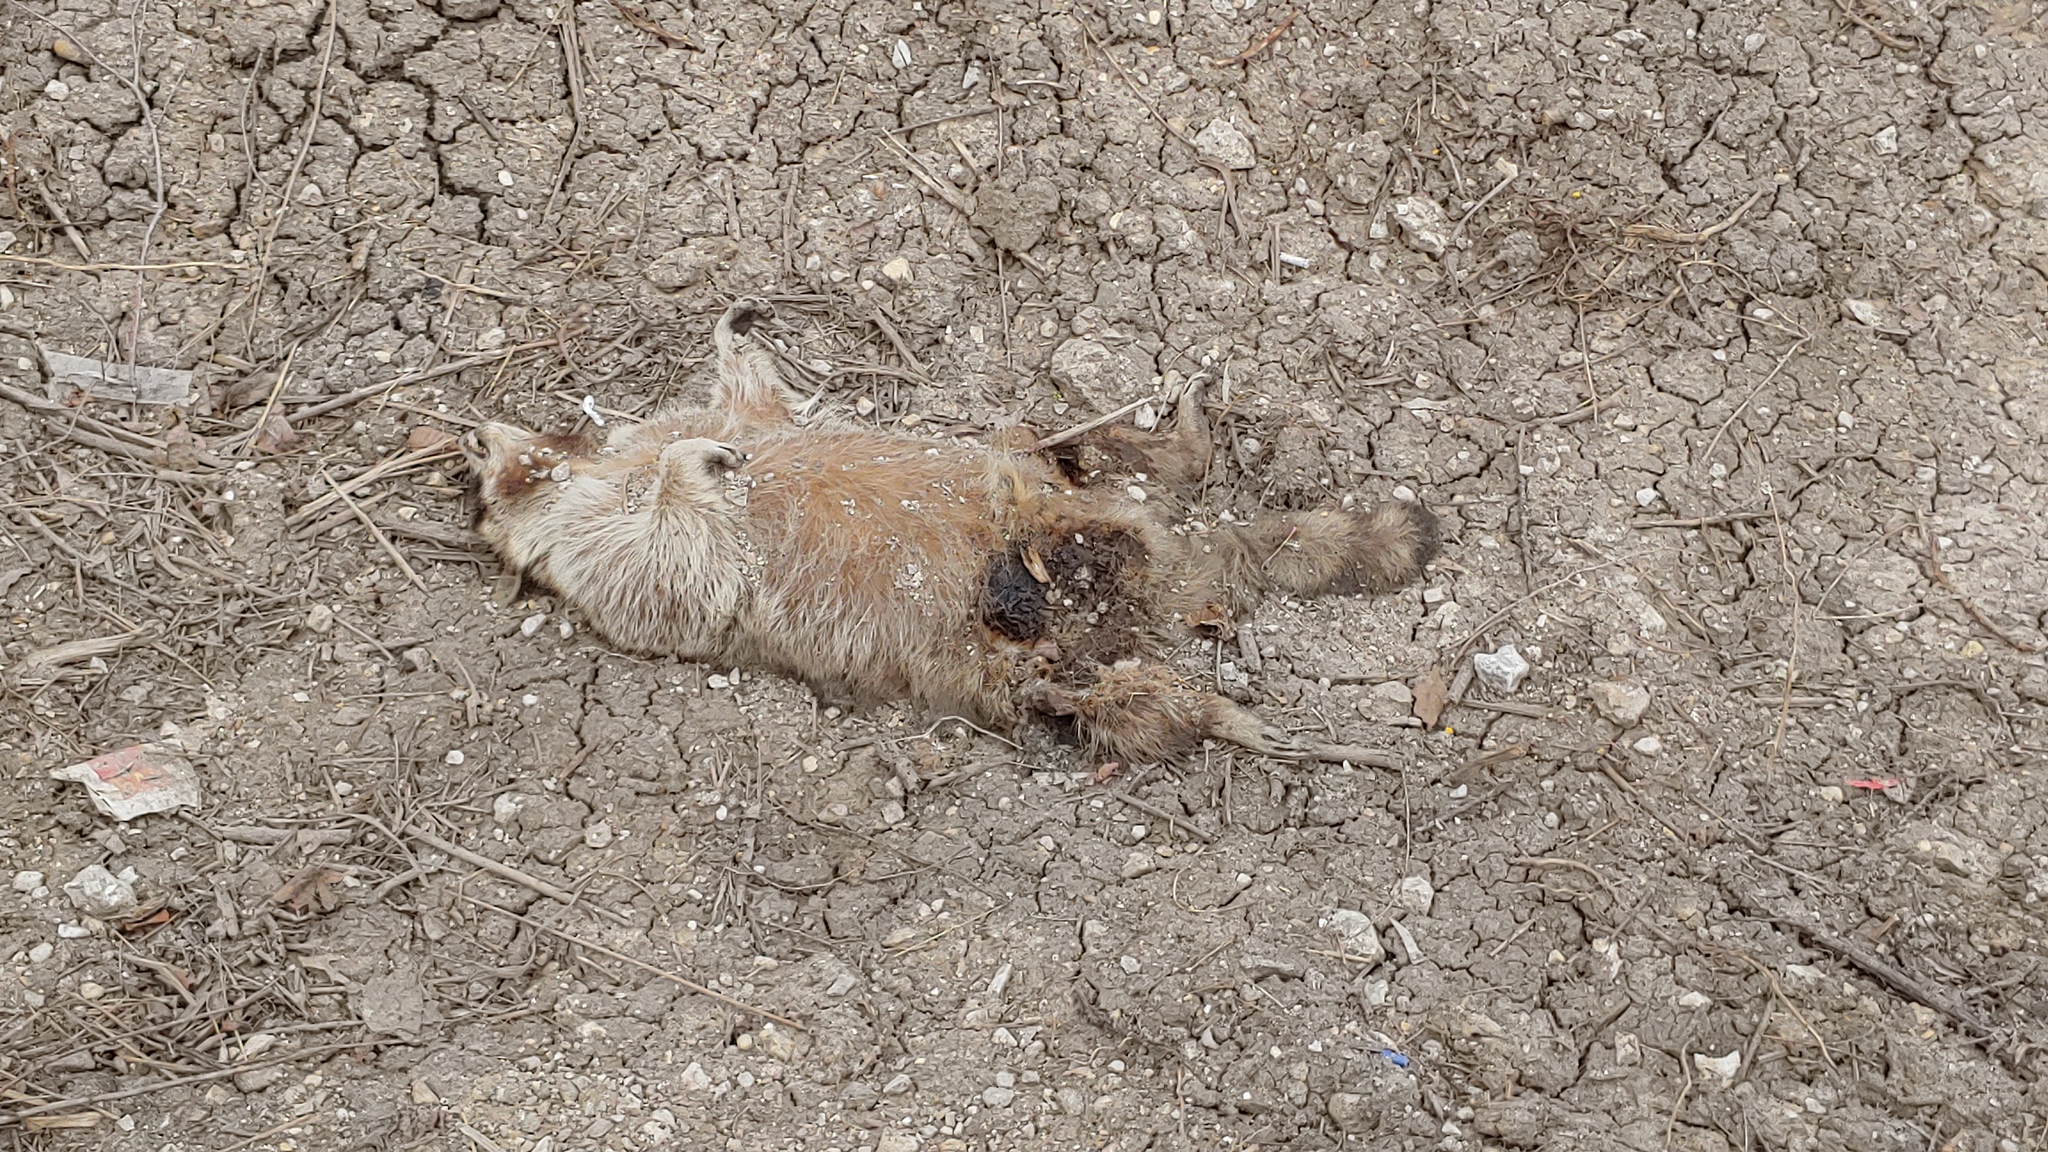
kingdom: Animalia
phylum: Chordata
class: Mammalia
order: Carnivora
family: Procyonidae
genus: Procyon
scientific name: Procyon lotor
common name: Raccoon
